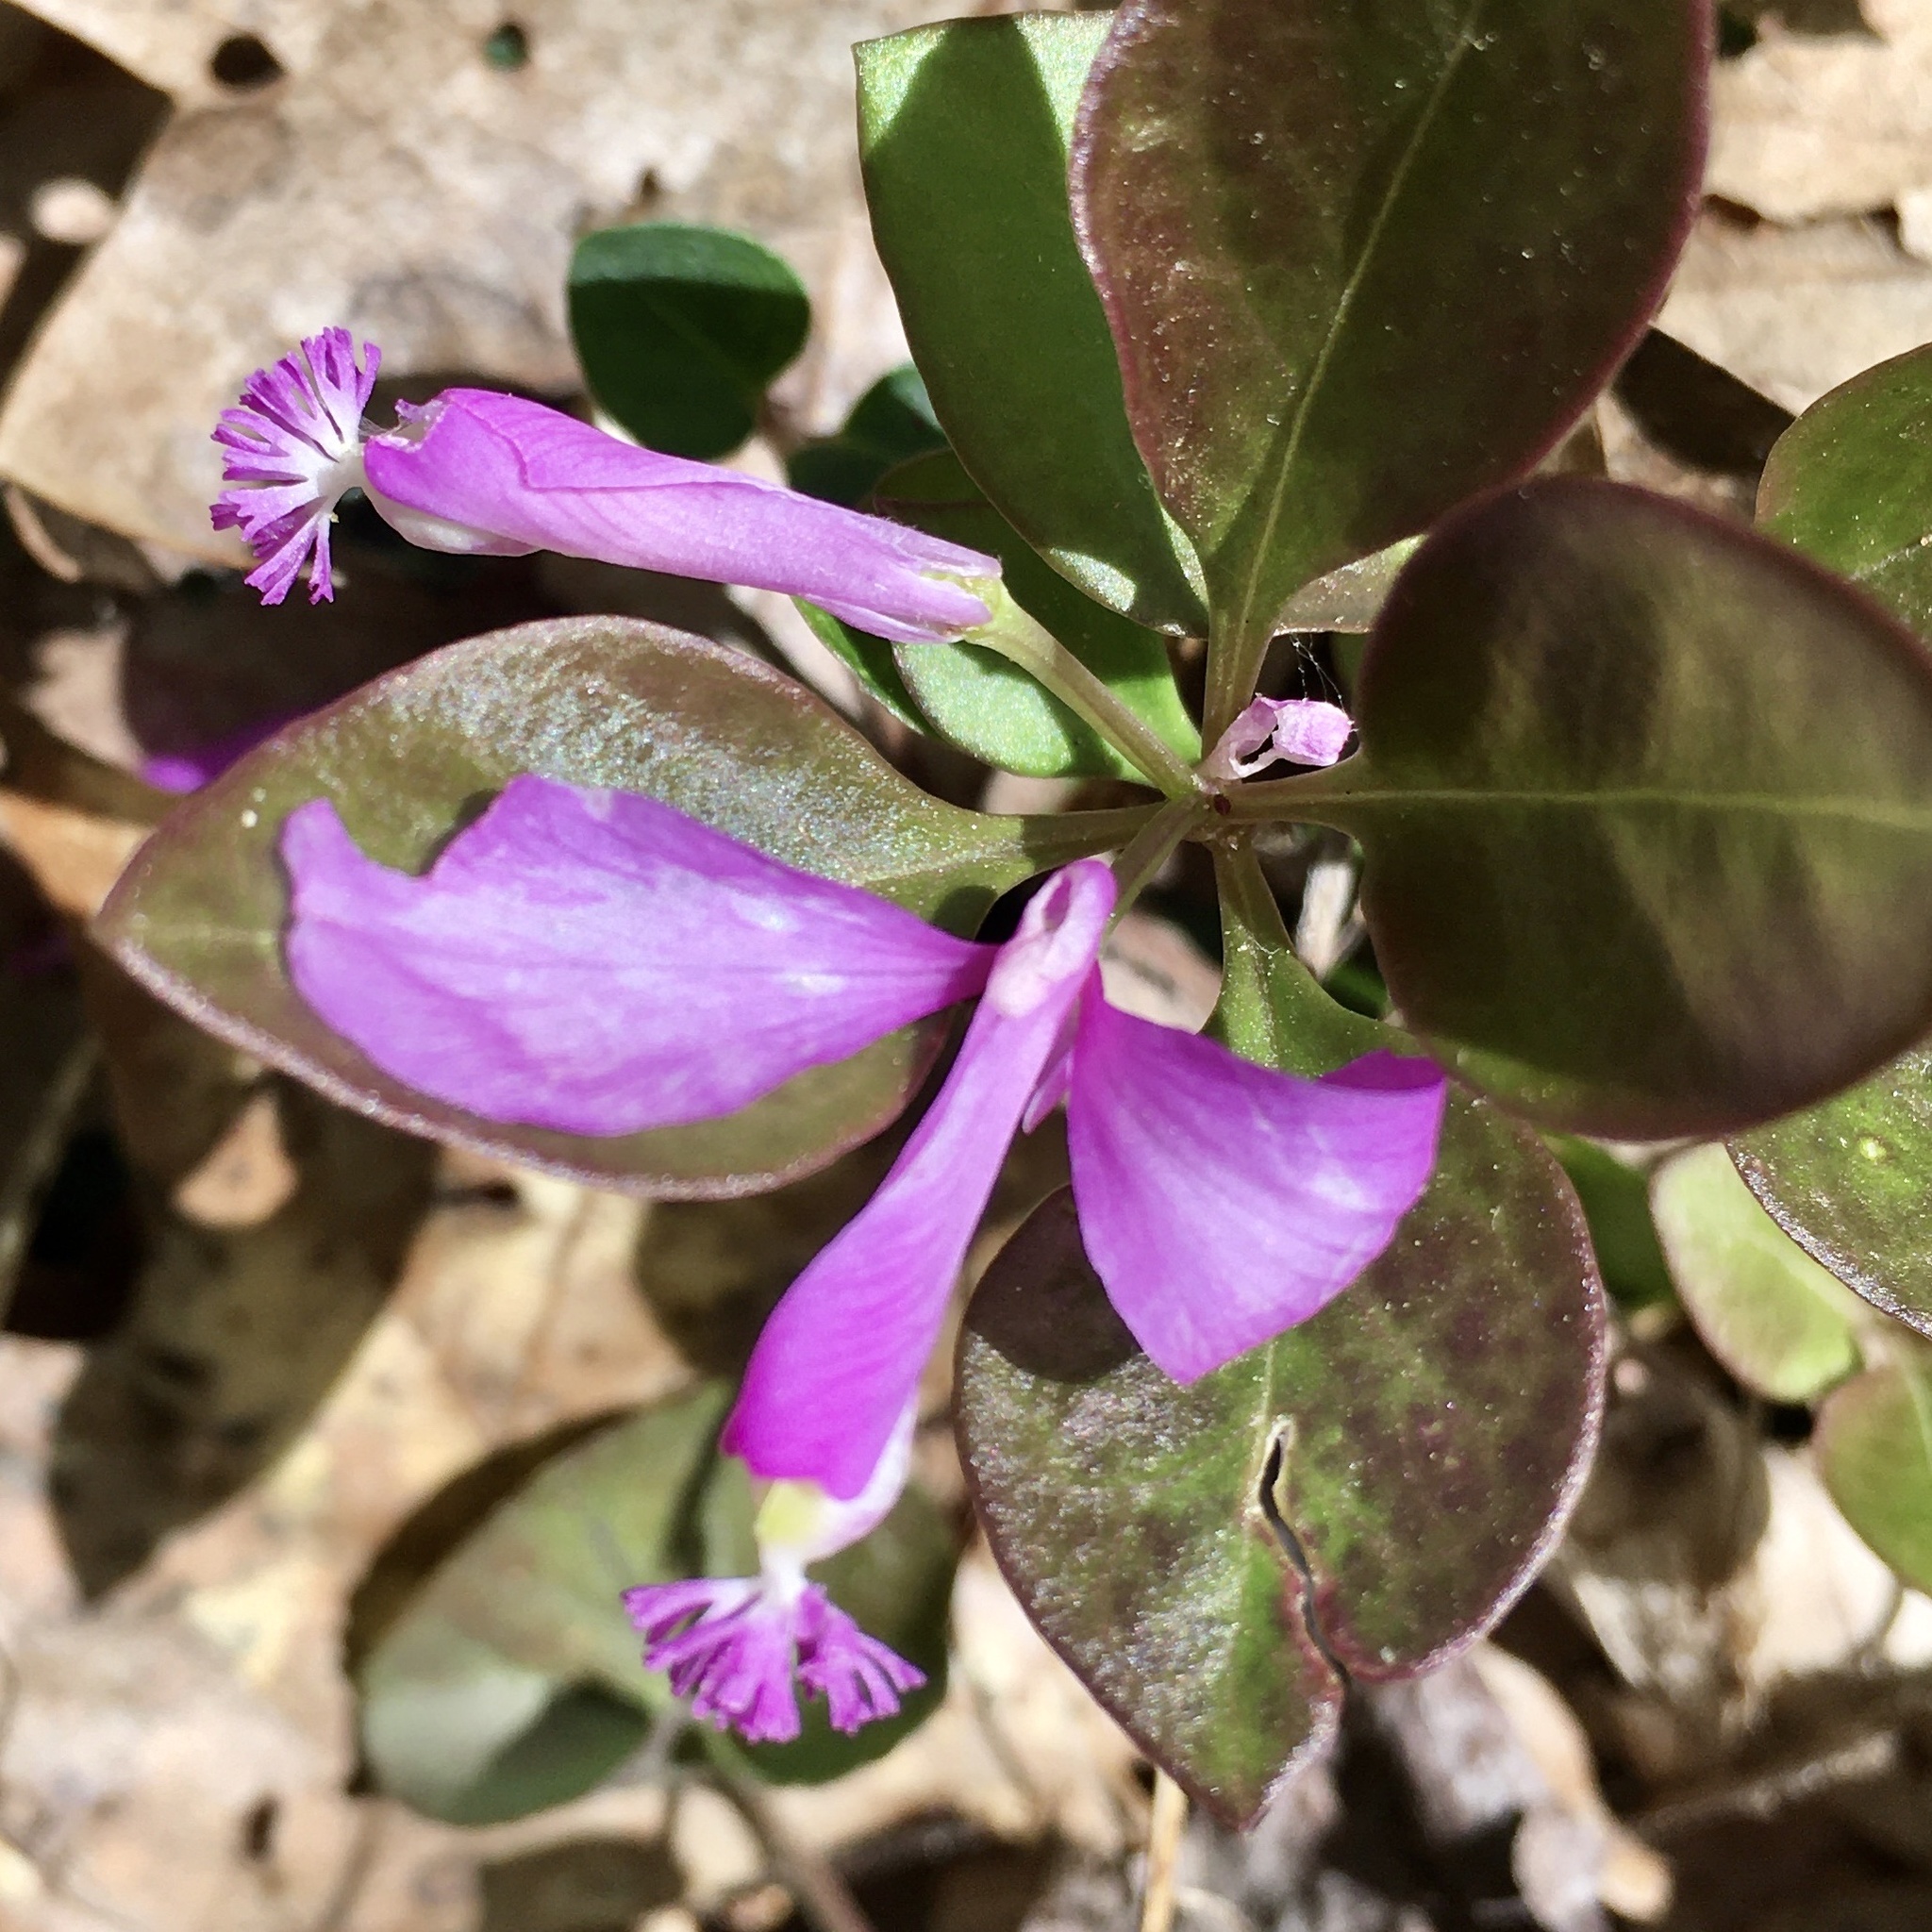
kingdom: Plantae
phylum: Tracheophyta
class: Magnoliopsida
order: Fabales
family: Polygalaceae
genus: Polygaloides
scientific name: Polygaloides paucifolia
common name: Bird-on-the-wing
